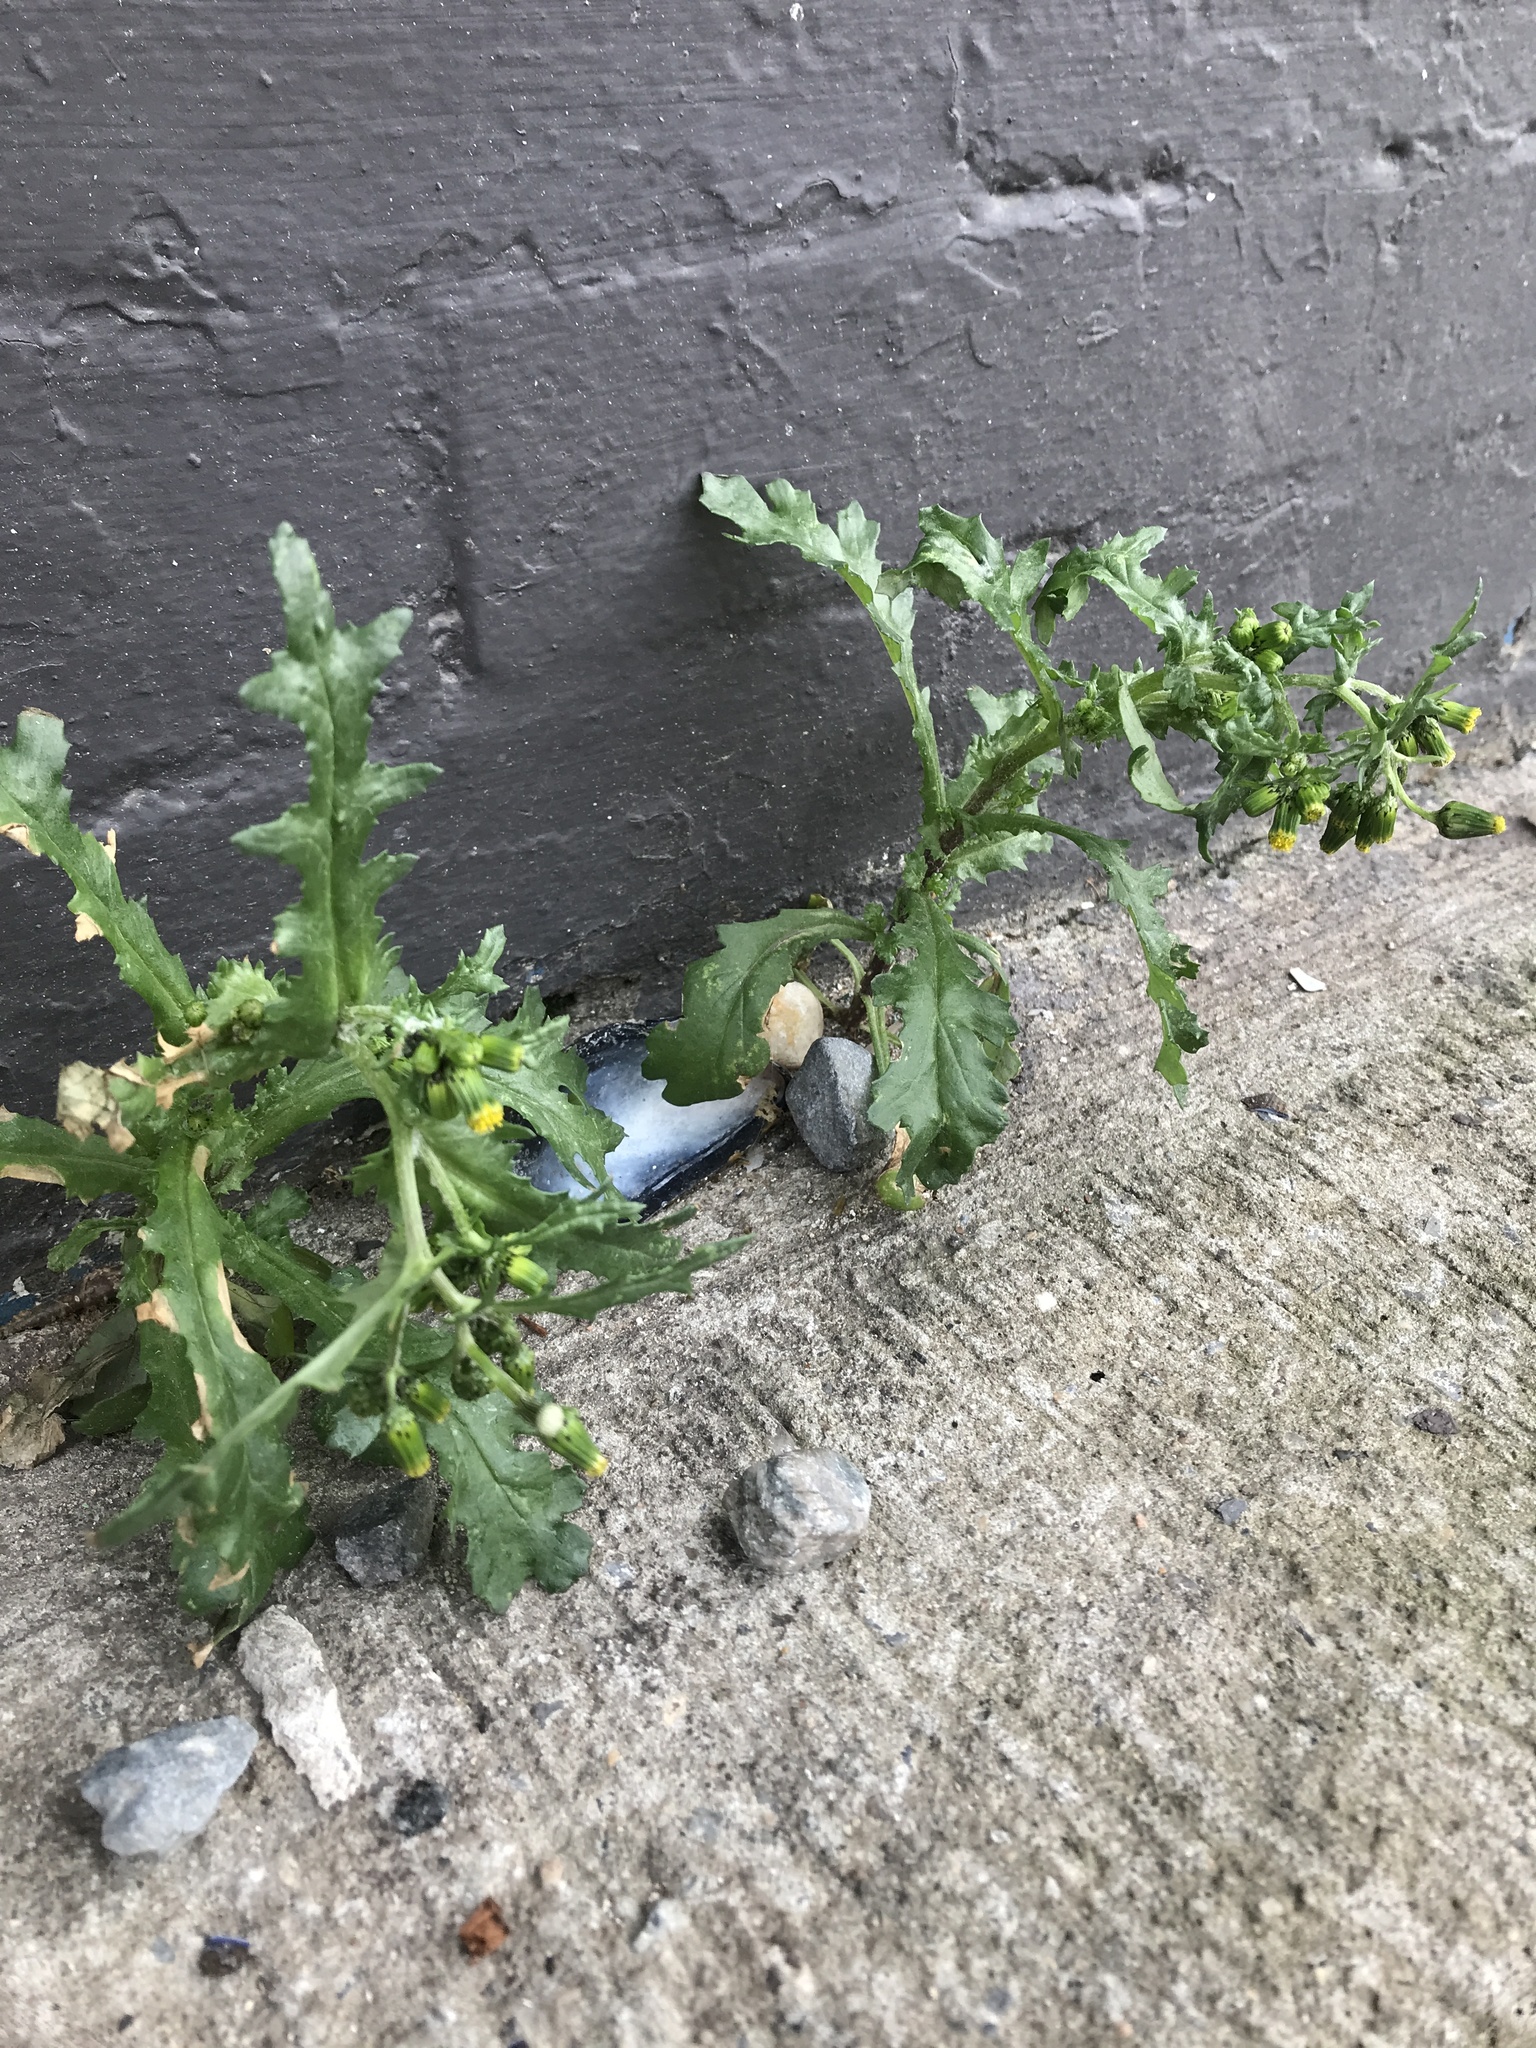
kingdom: Plantae
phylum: Tracheophyta
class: Magnoliopsida
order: Asterales
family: Asteraceae
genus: Senecio
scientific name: Senecio vulgaris
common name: Old-man-in-the-spring
